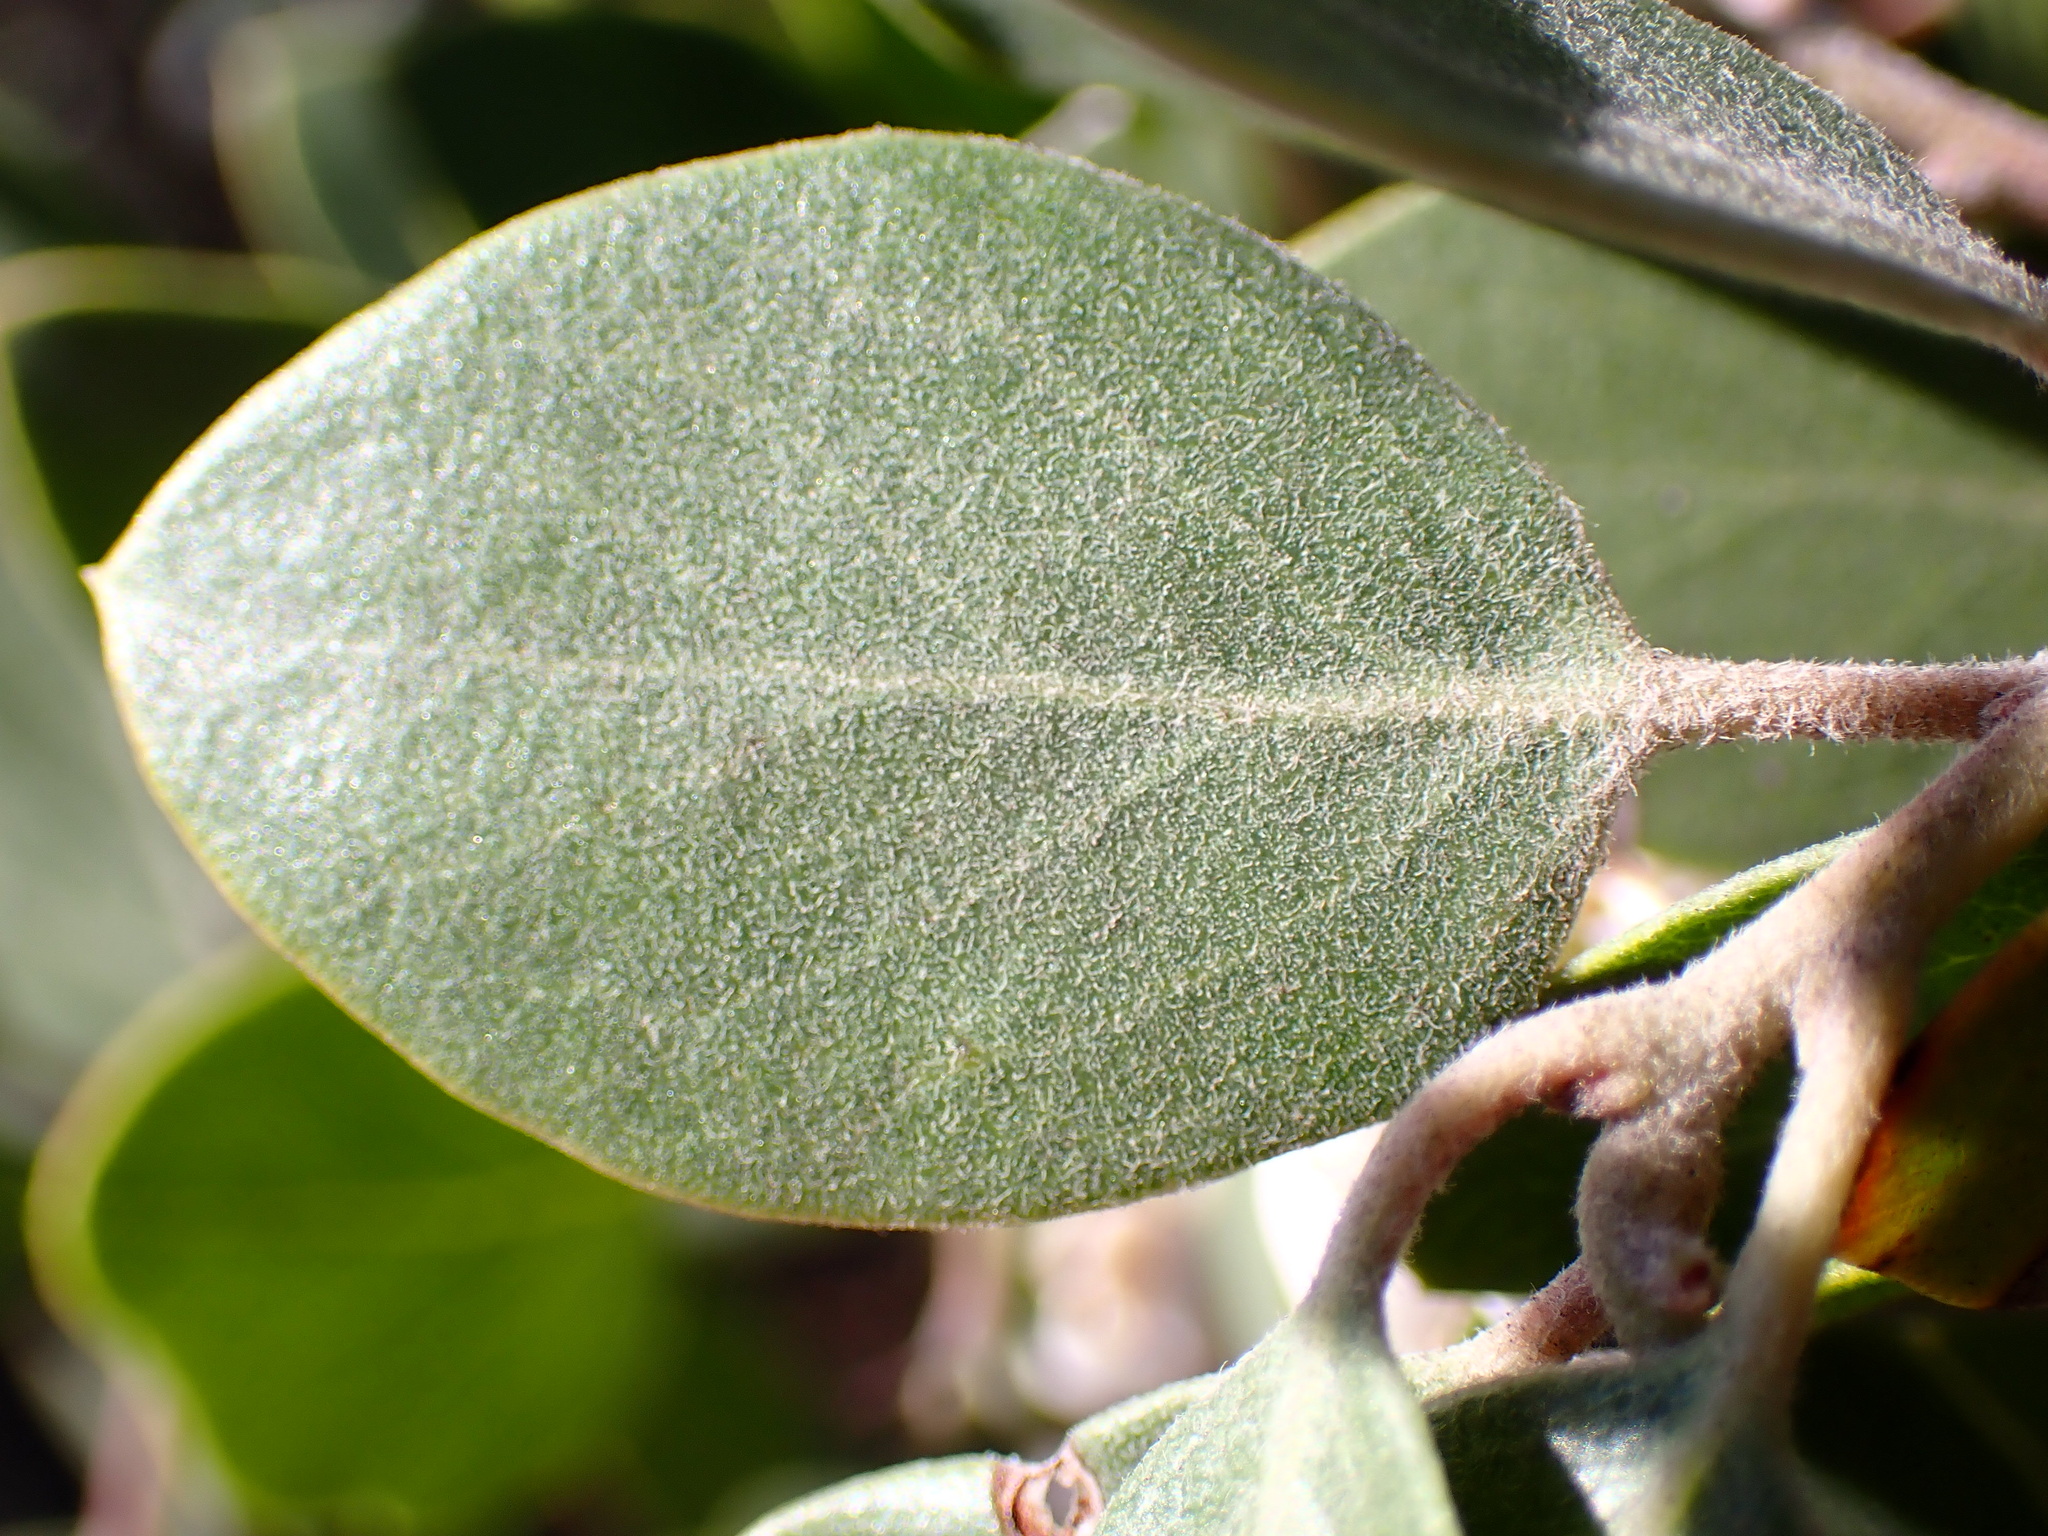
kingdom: Plantae
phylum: Tracheophyta
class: Magnoliopsida
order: Ericales
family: Ericaceae
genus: Arctostaphylos
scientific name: Arctostaphylos manzanita
